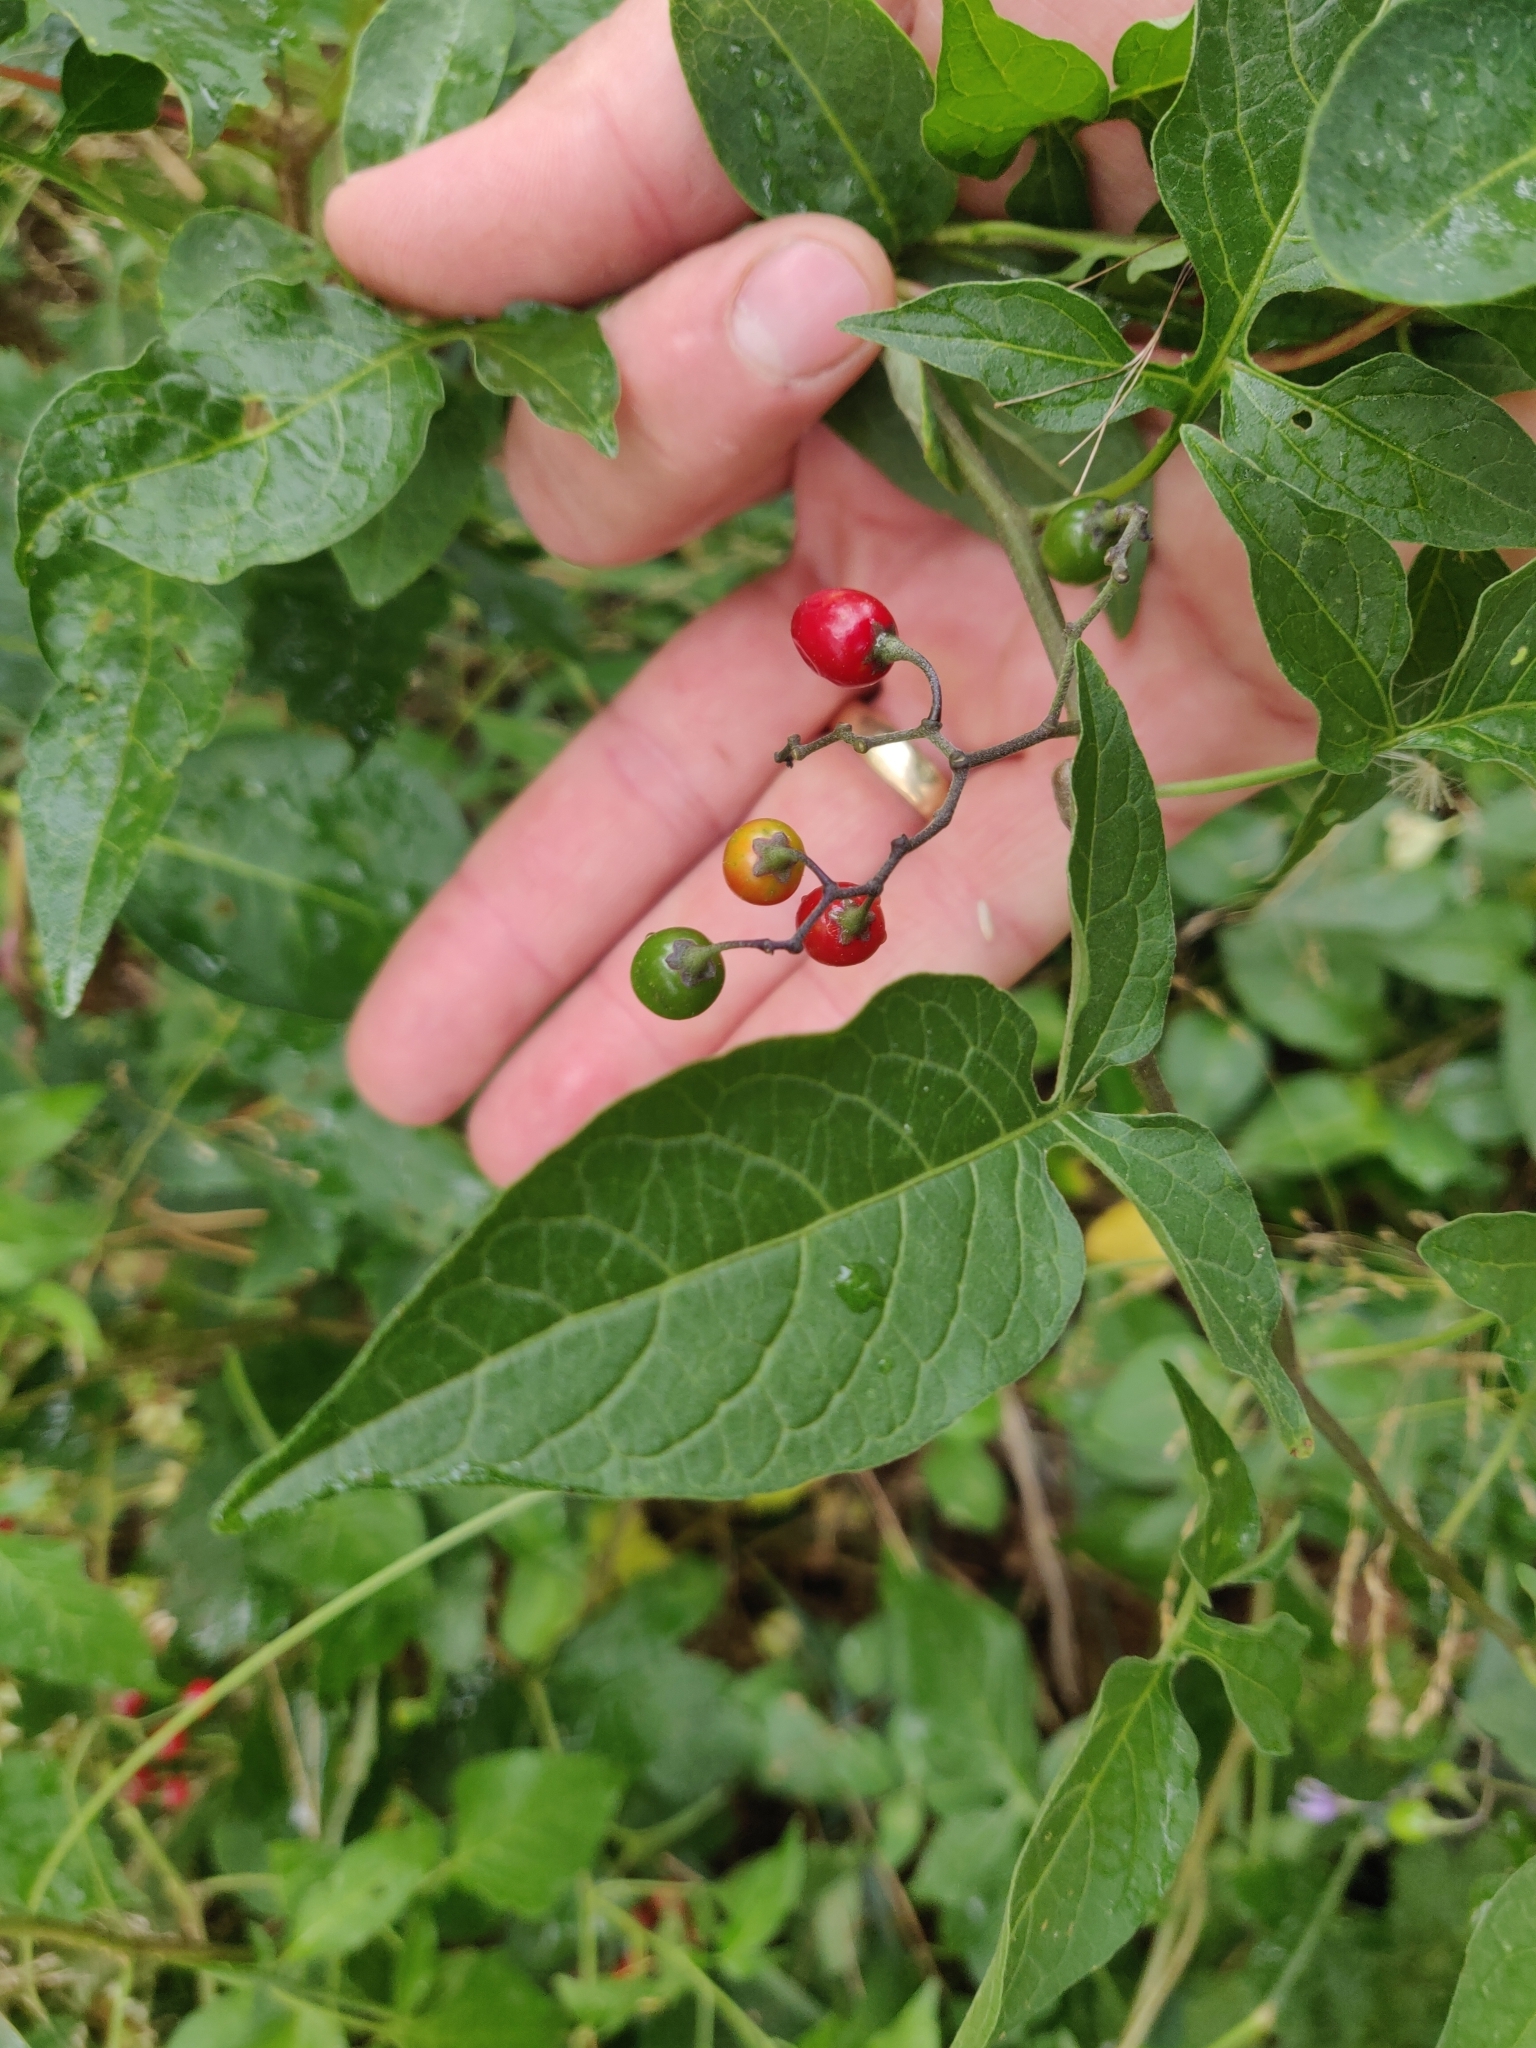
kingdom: Plantae
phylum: Tracheophyta
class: Magnoliopsida
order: Solanales
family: Solanaceae
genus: Solanum
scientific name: Solanum dulcamara
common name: Climbing nightshade
